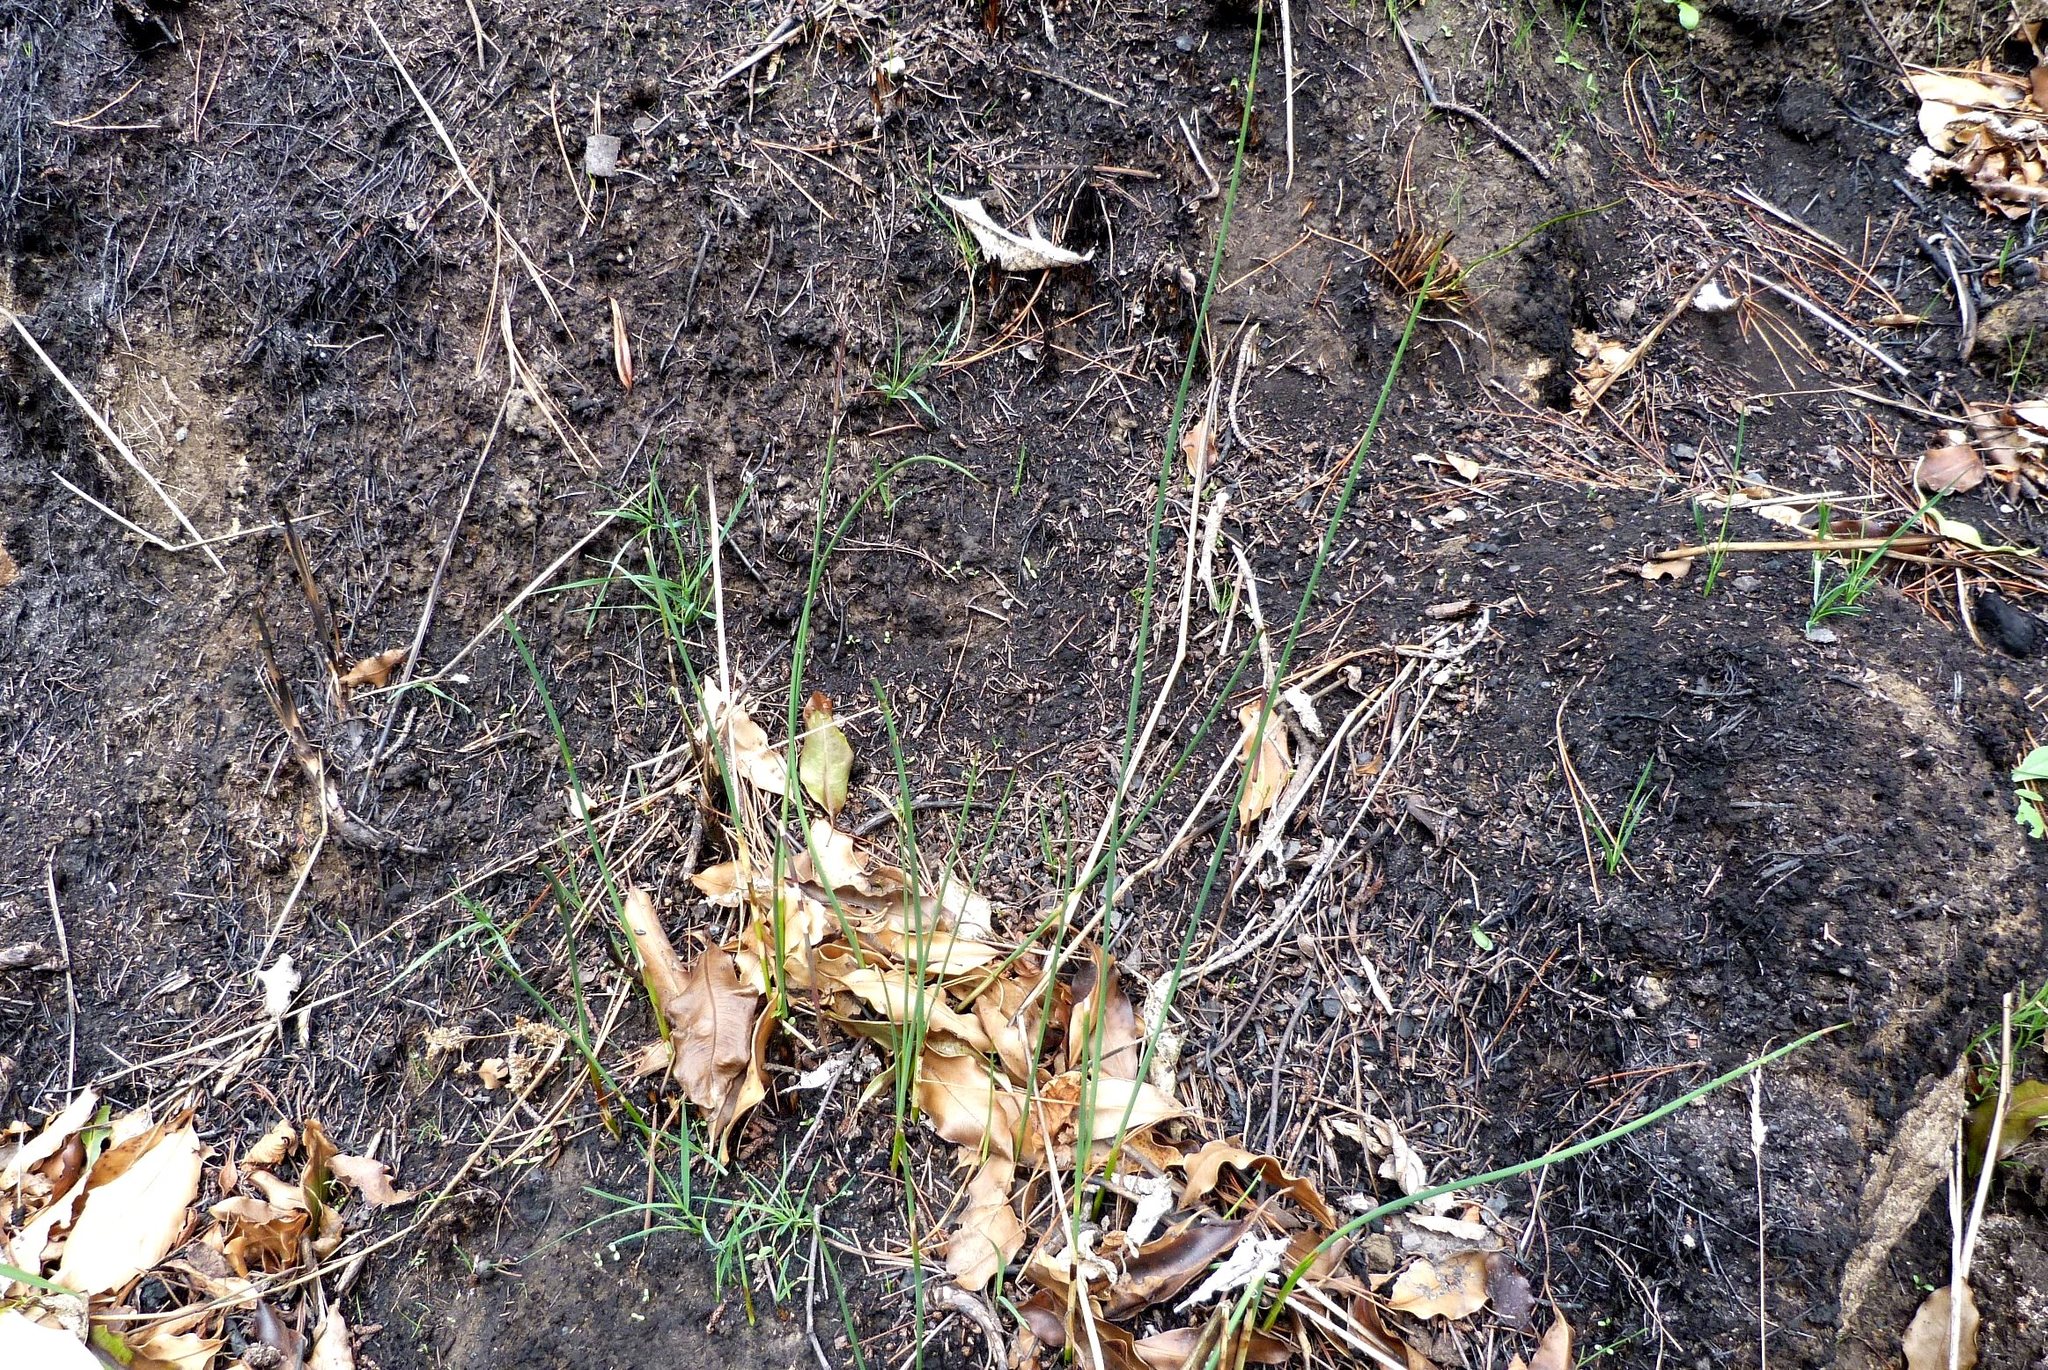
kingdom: Plantae
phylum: Tracheophyta
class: Liliopsida
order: Poales
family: Juncaceae
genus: Juncus
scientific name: Juncus sarophorus
